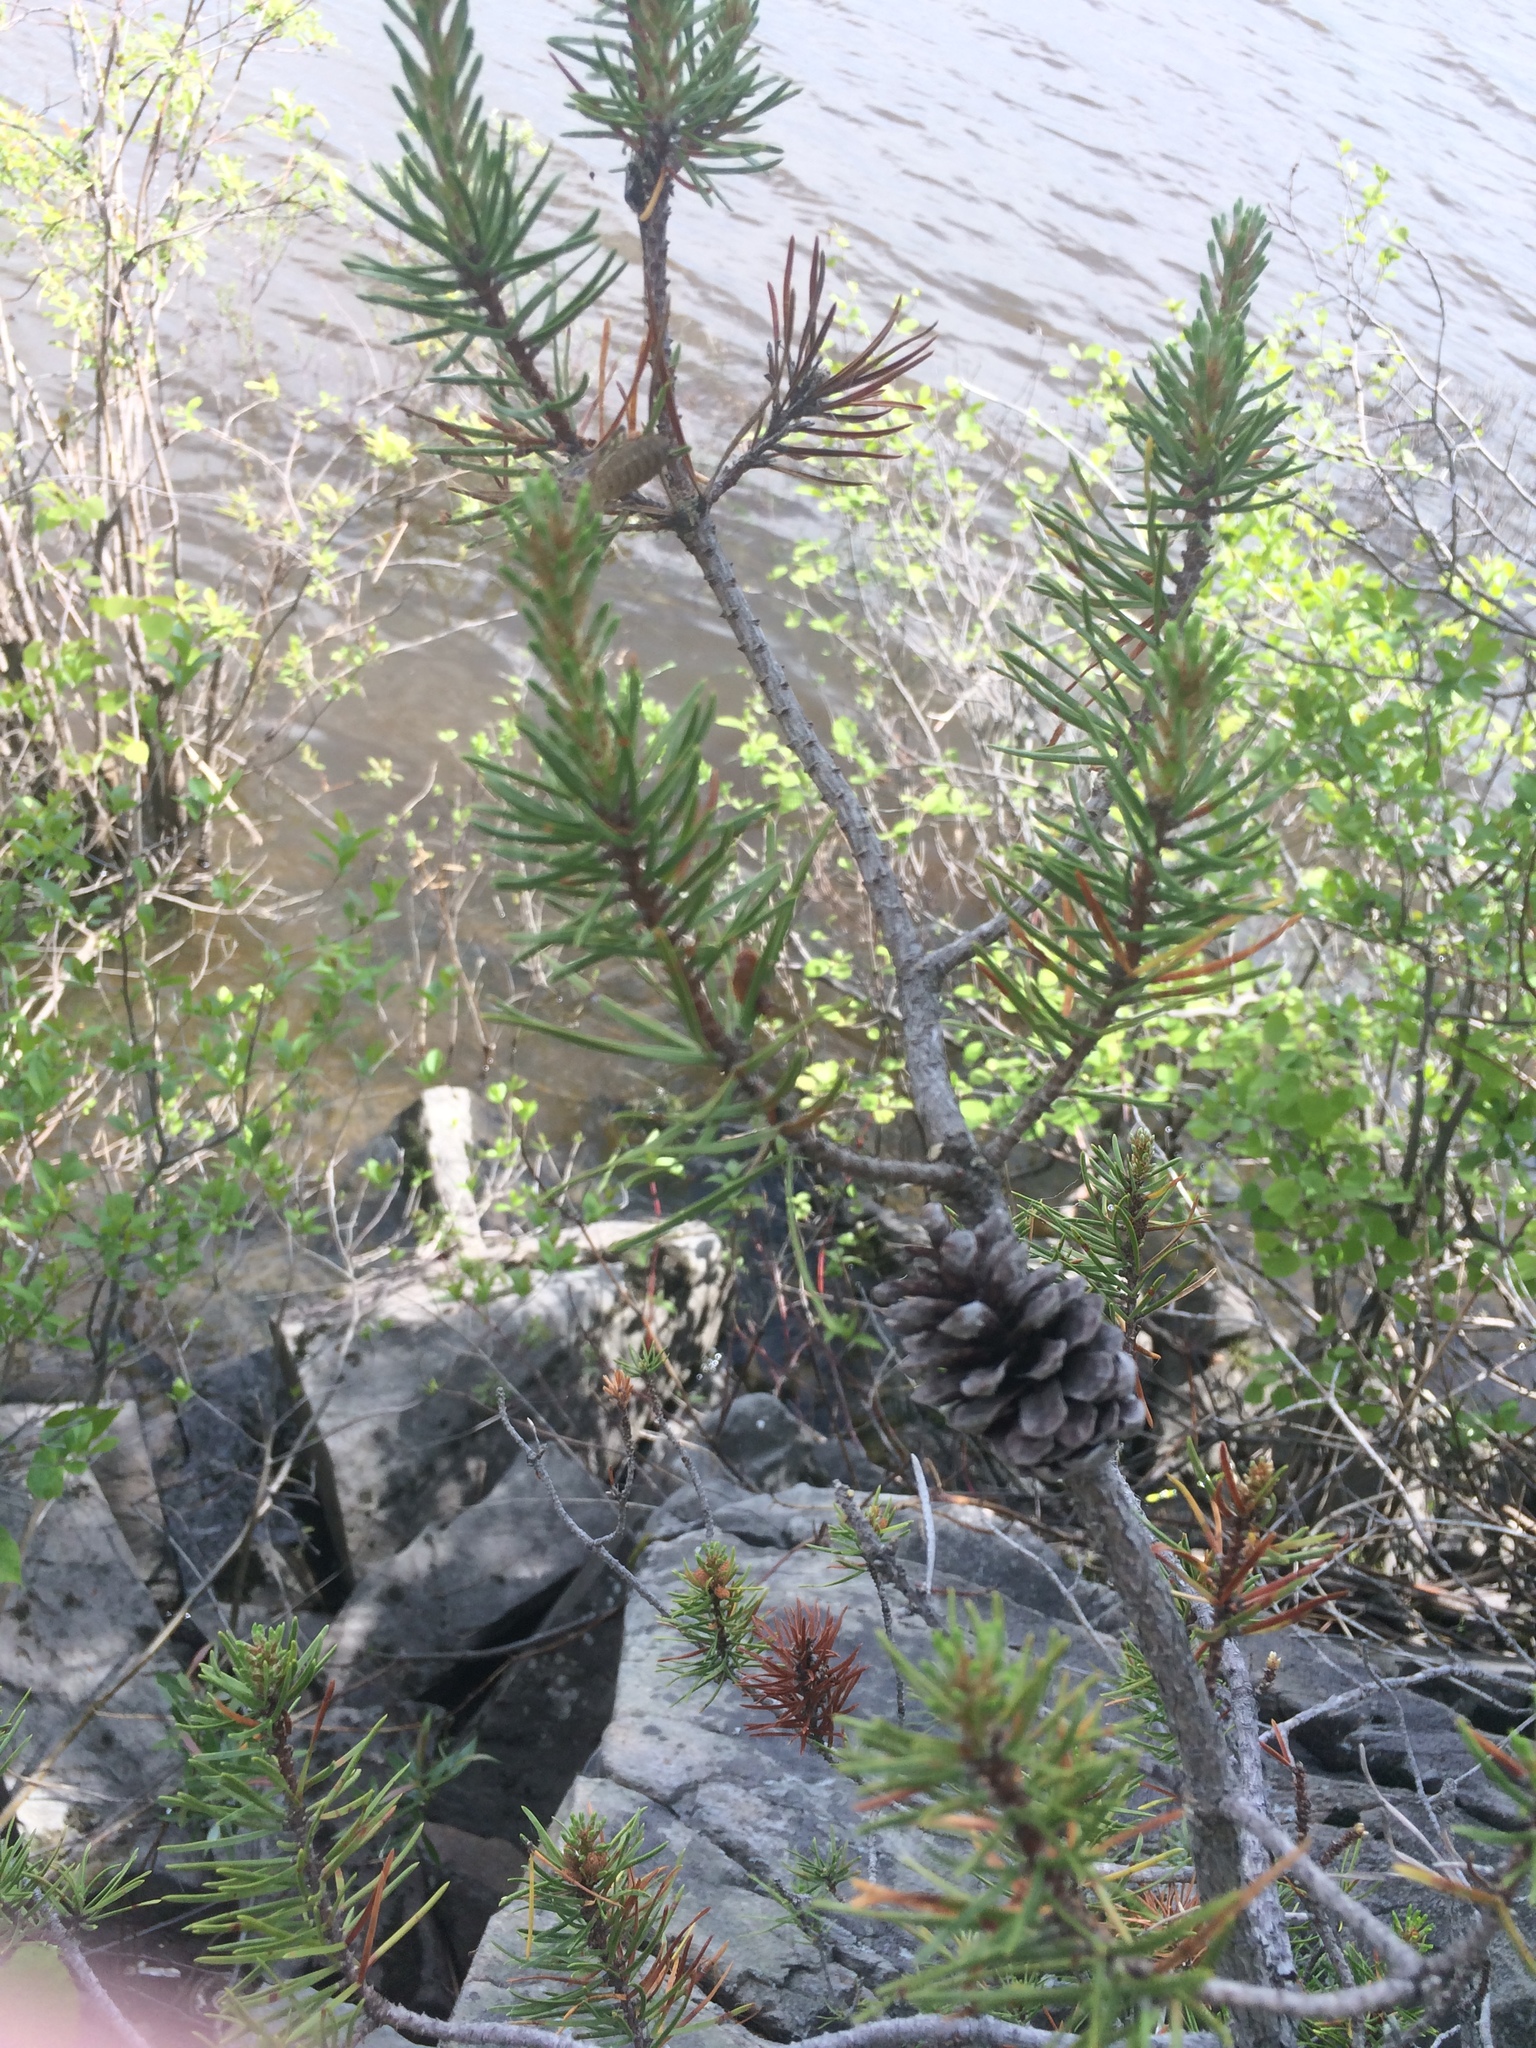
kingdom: Plantae
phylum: Tracheophyta
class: Pinopsida
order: Pinales
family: Pinaceae
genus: Pinus
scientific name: Pinus banksiana
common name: Jack pine
